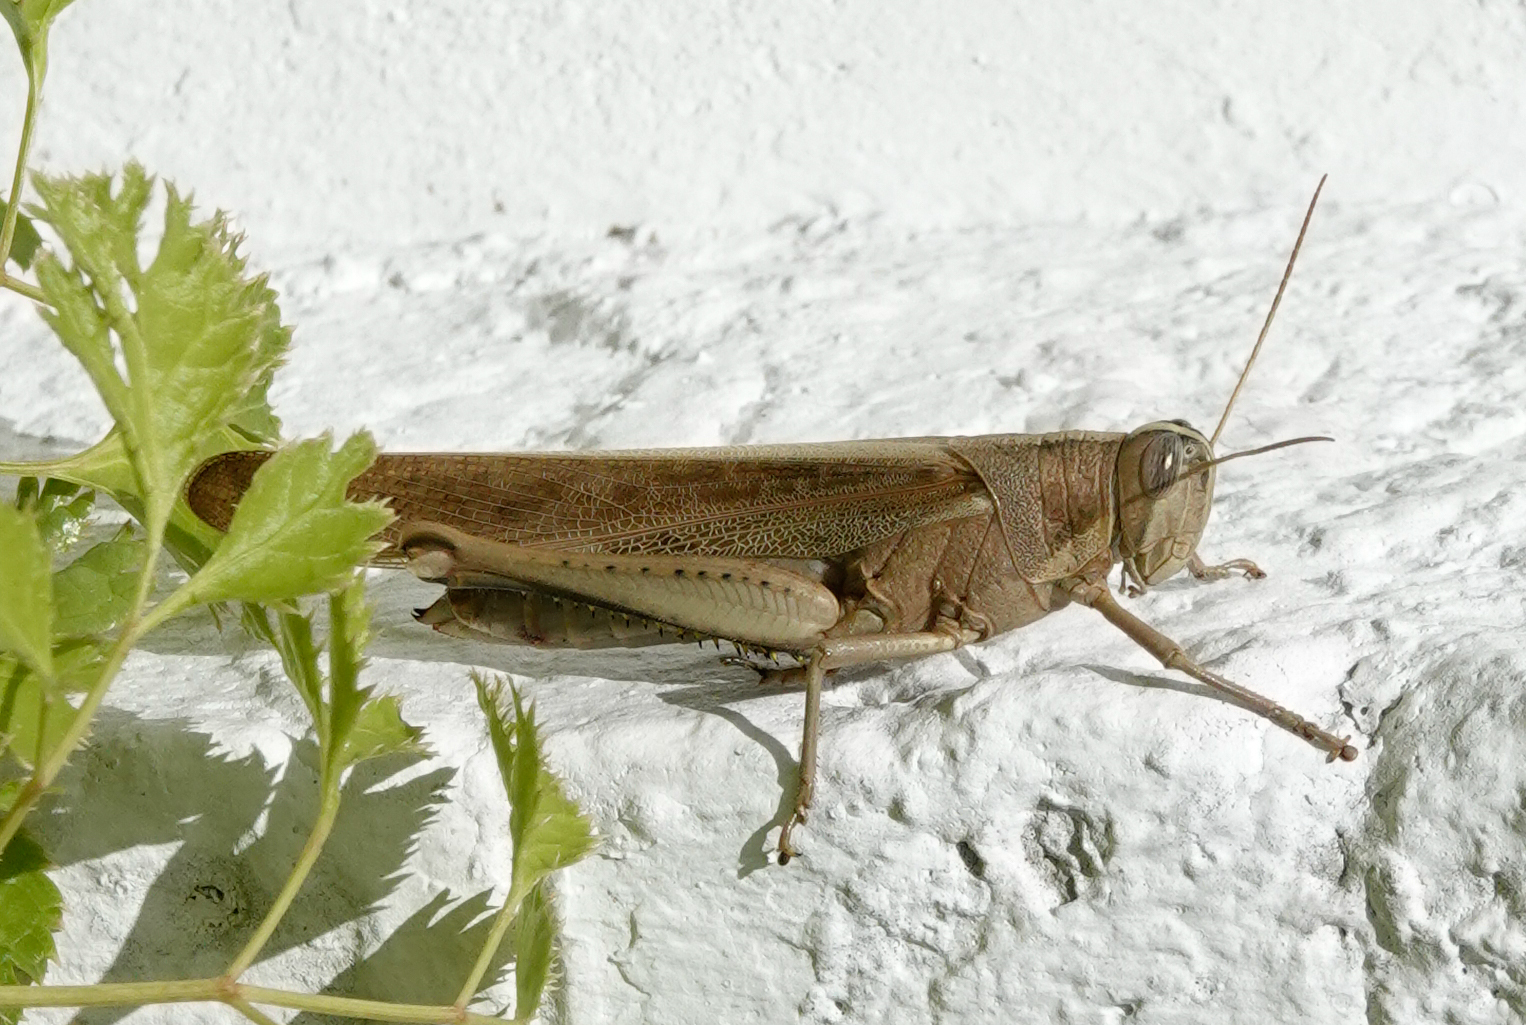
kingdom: Animalia
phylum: Arthropoda
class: Insecta
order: Orthoptera
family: Acrididae
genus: Schistocerca
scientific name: Schistocerca flavofasciata
